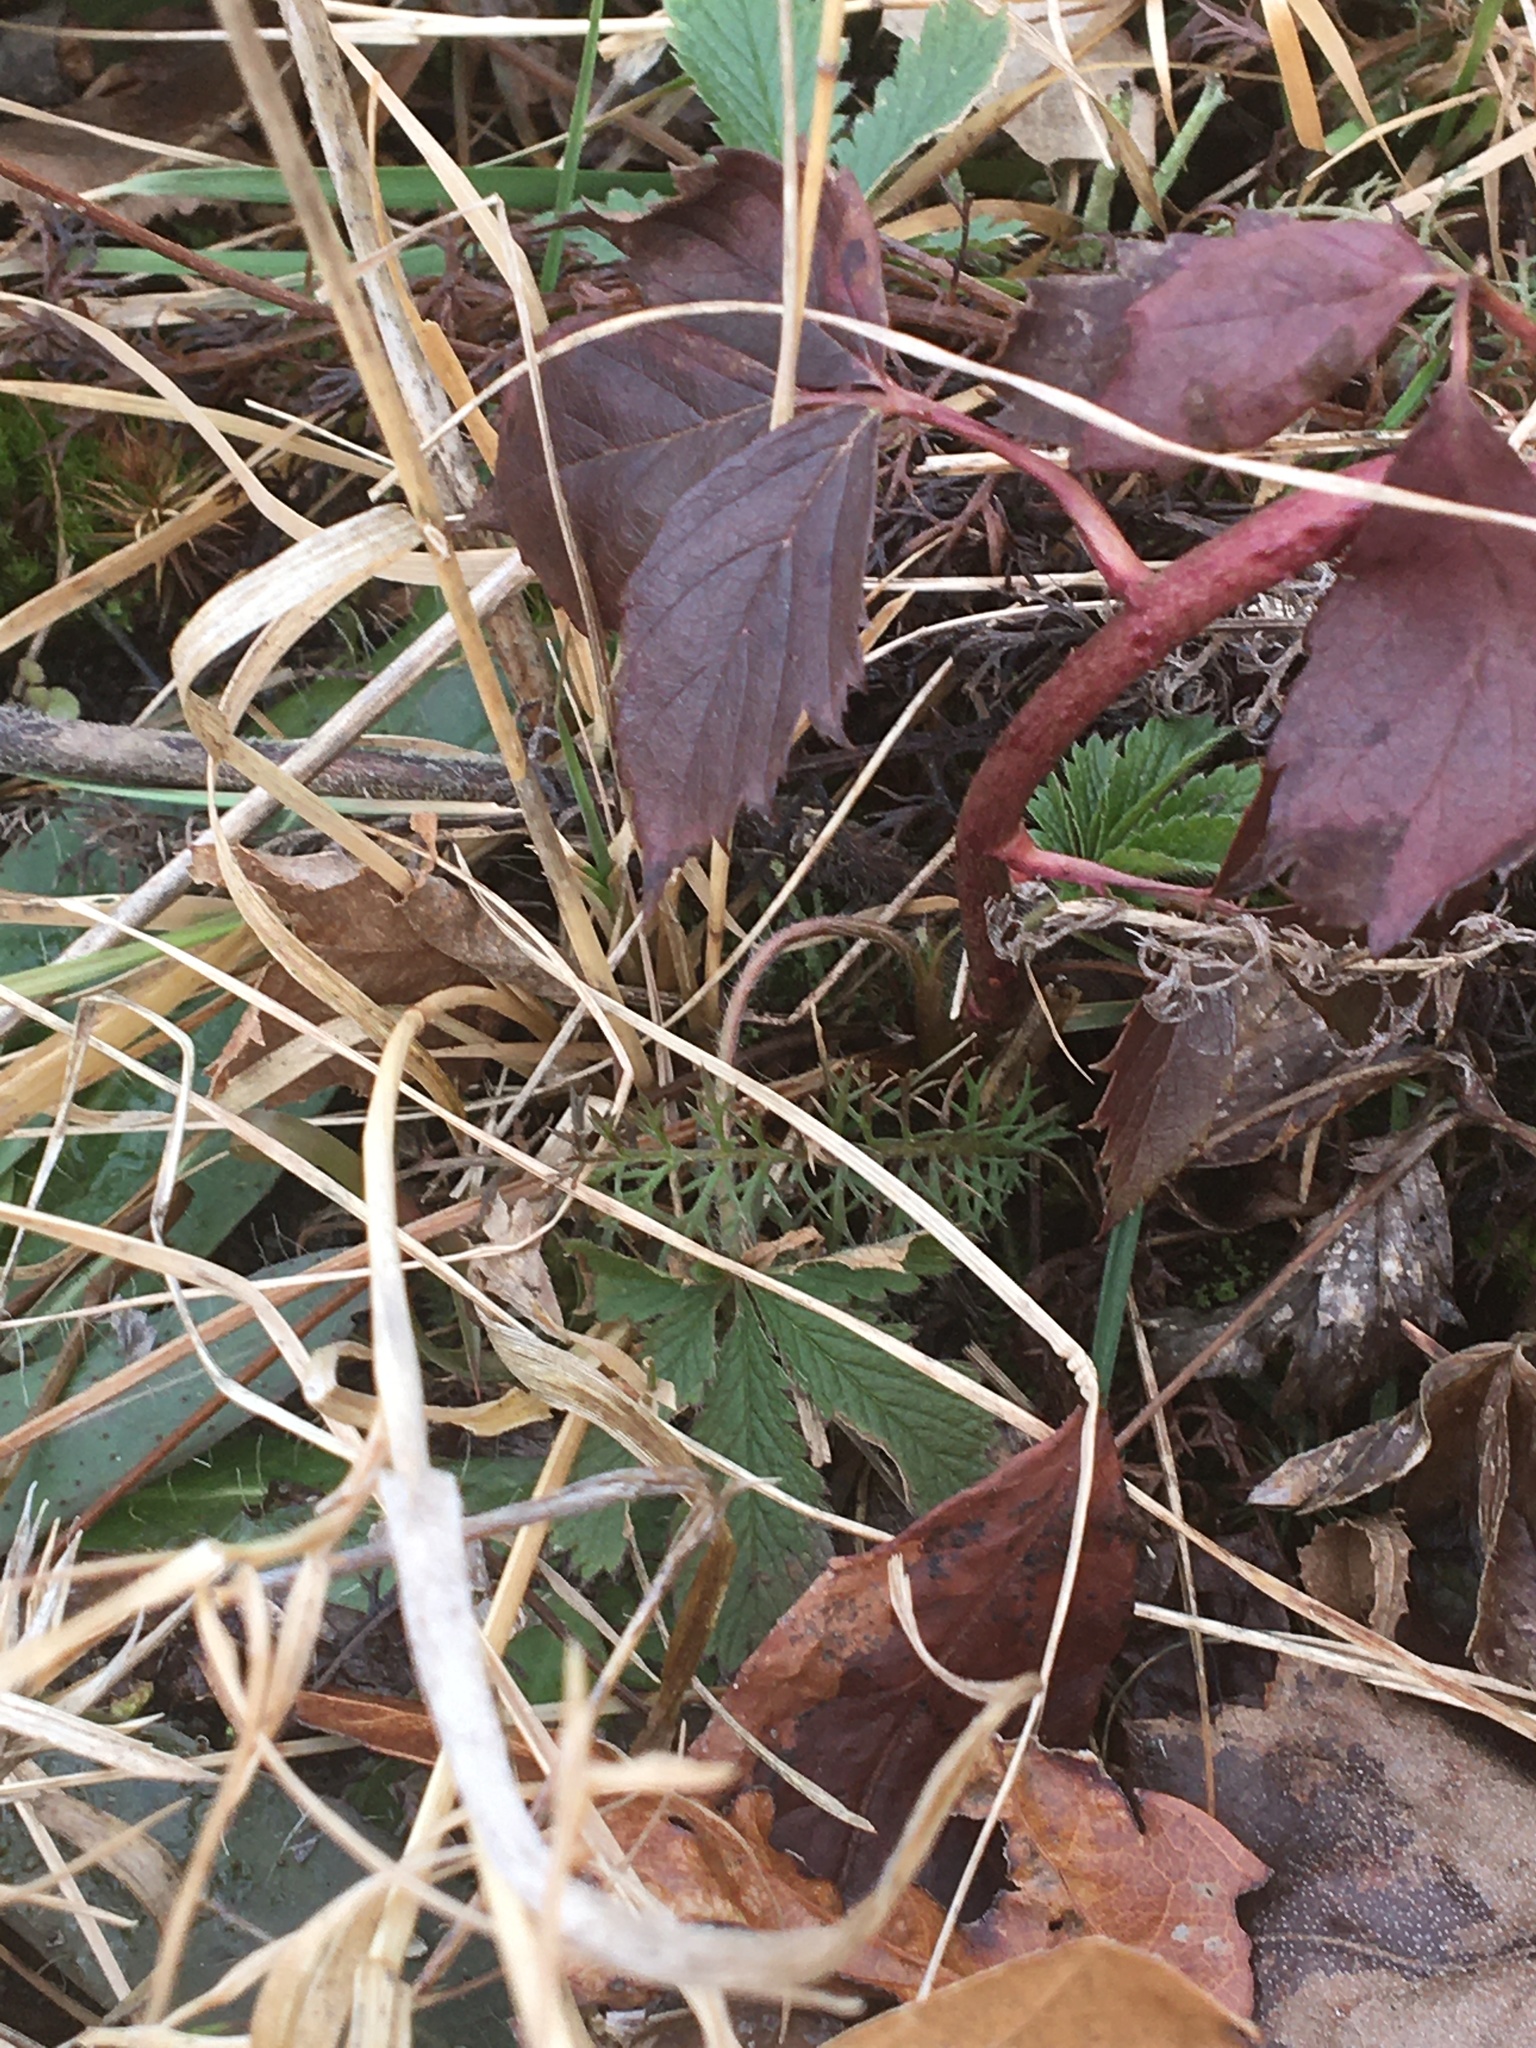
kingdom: Plantae
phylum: Tracheophyta
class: Magnoliopsida
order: Asterales
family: Asteraceae
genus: Achillea
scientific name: Achillea millefolium
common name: Yarrow
